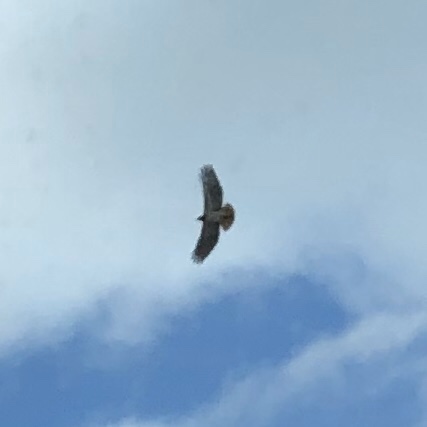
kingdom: Animalia
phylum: Chordata
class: Aves
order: Accipitriformes
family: Accipitridae
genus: Buteo
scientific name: Buteo jamaicensis
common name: Red-tailed hawk
